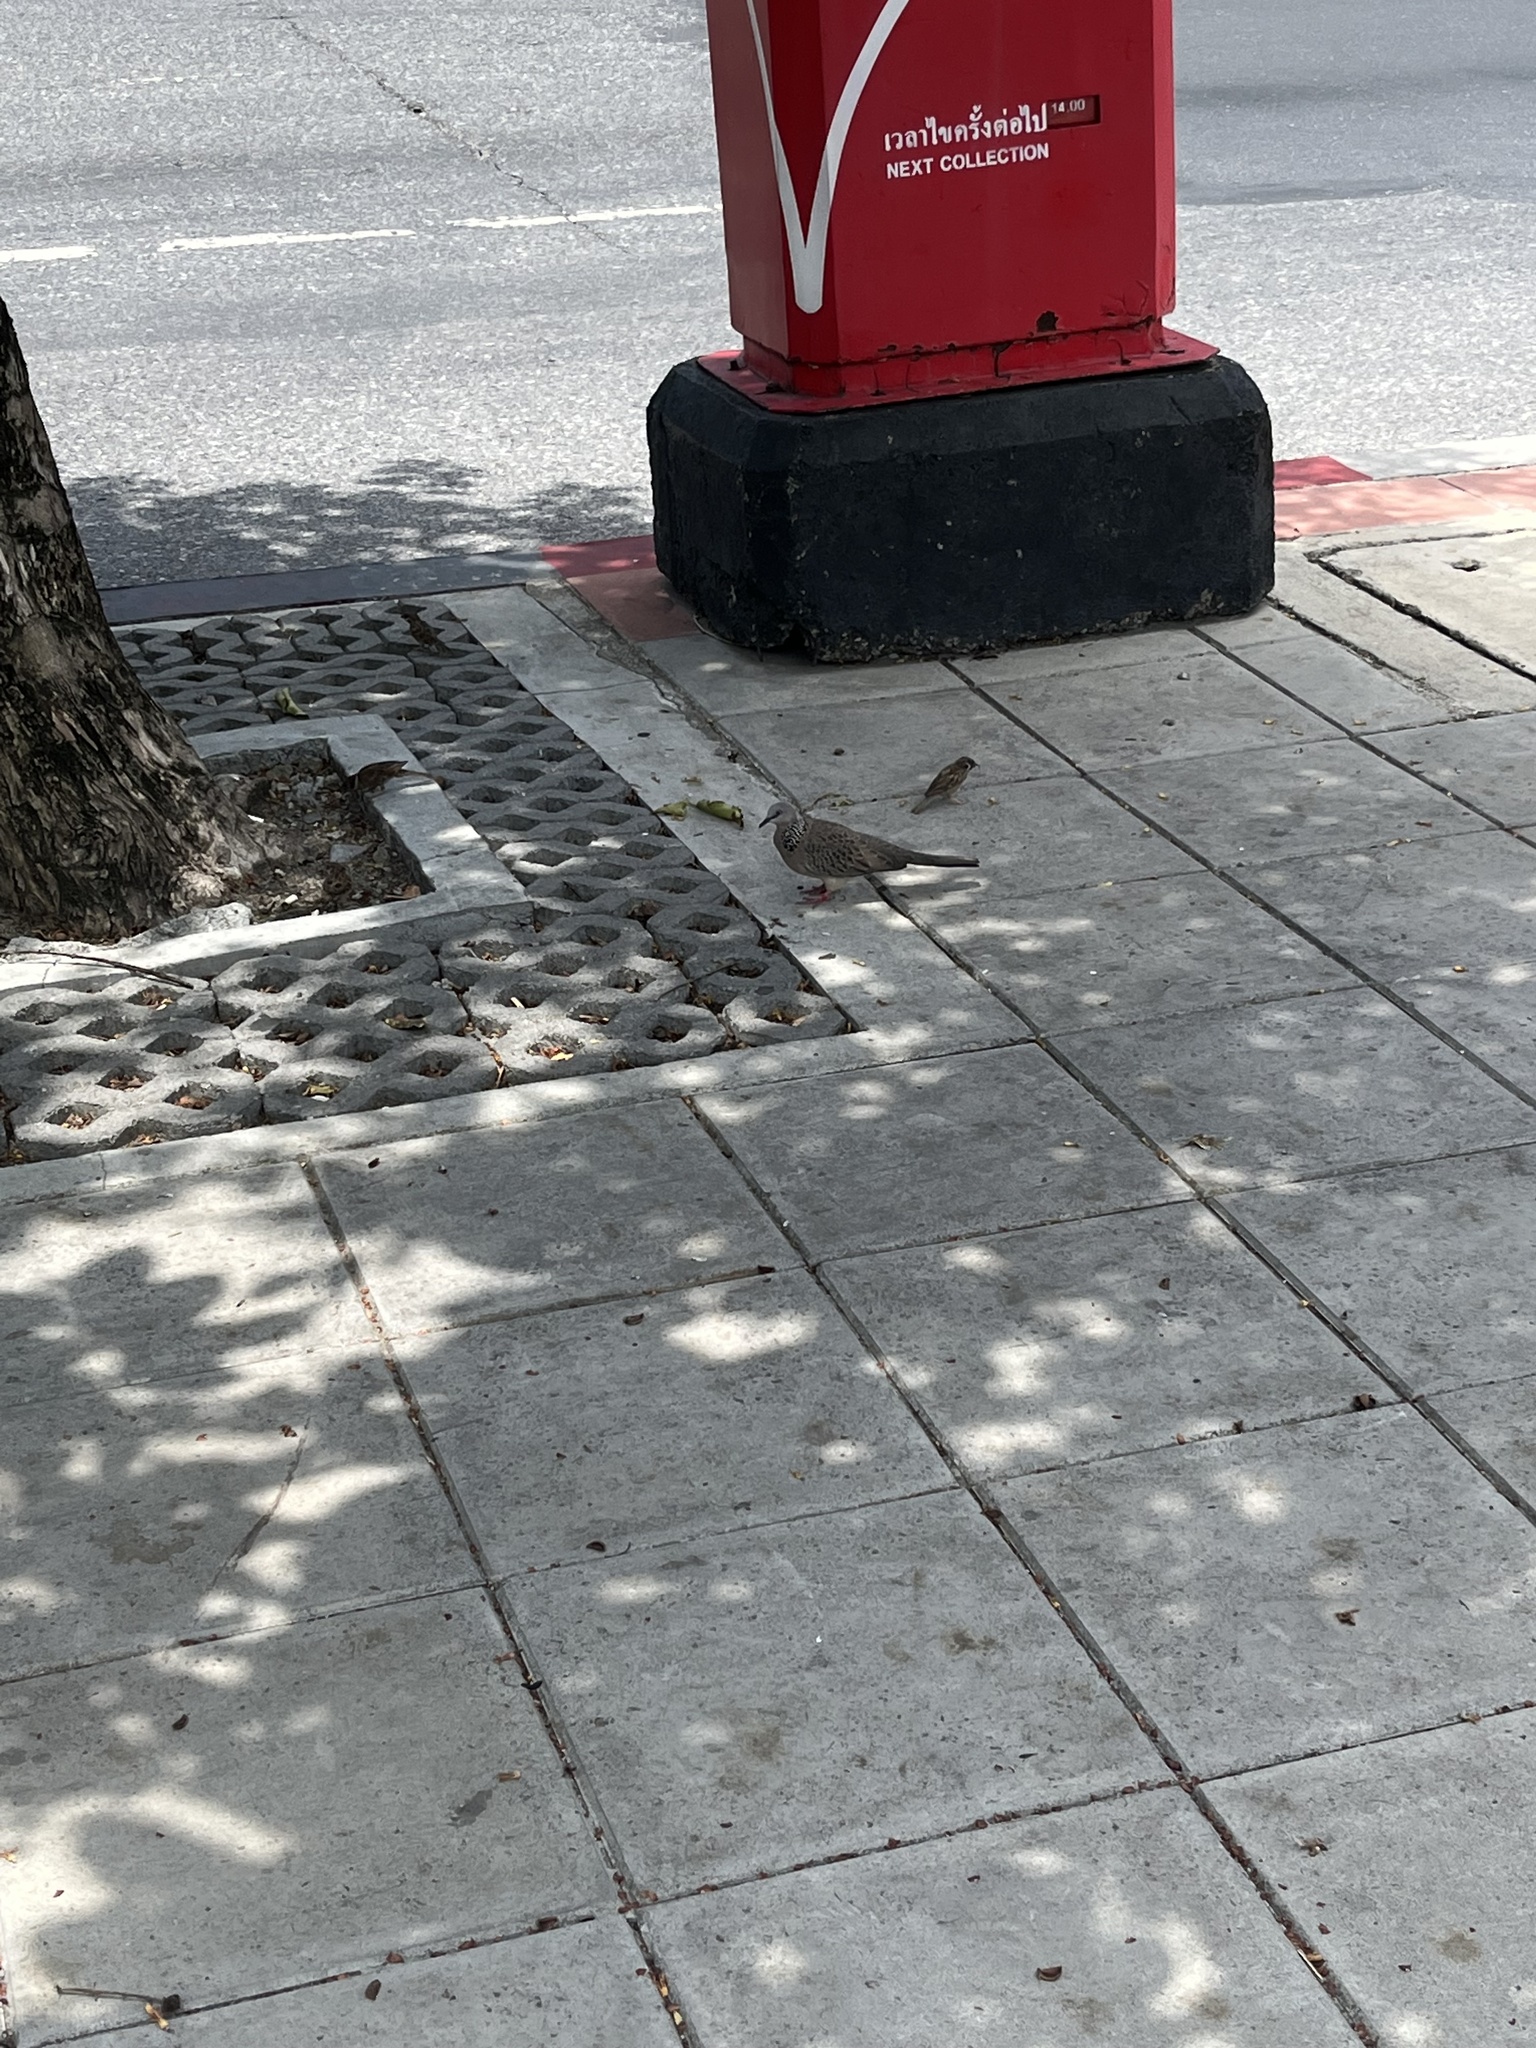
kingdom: Animalia
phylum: Chordata
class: Aves
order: Columbiformes
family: Columbidae
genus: Spilopelia
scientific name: Spilopelia chinensis
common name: Spotted dove
